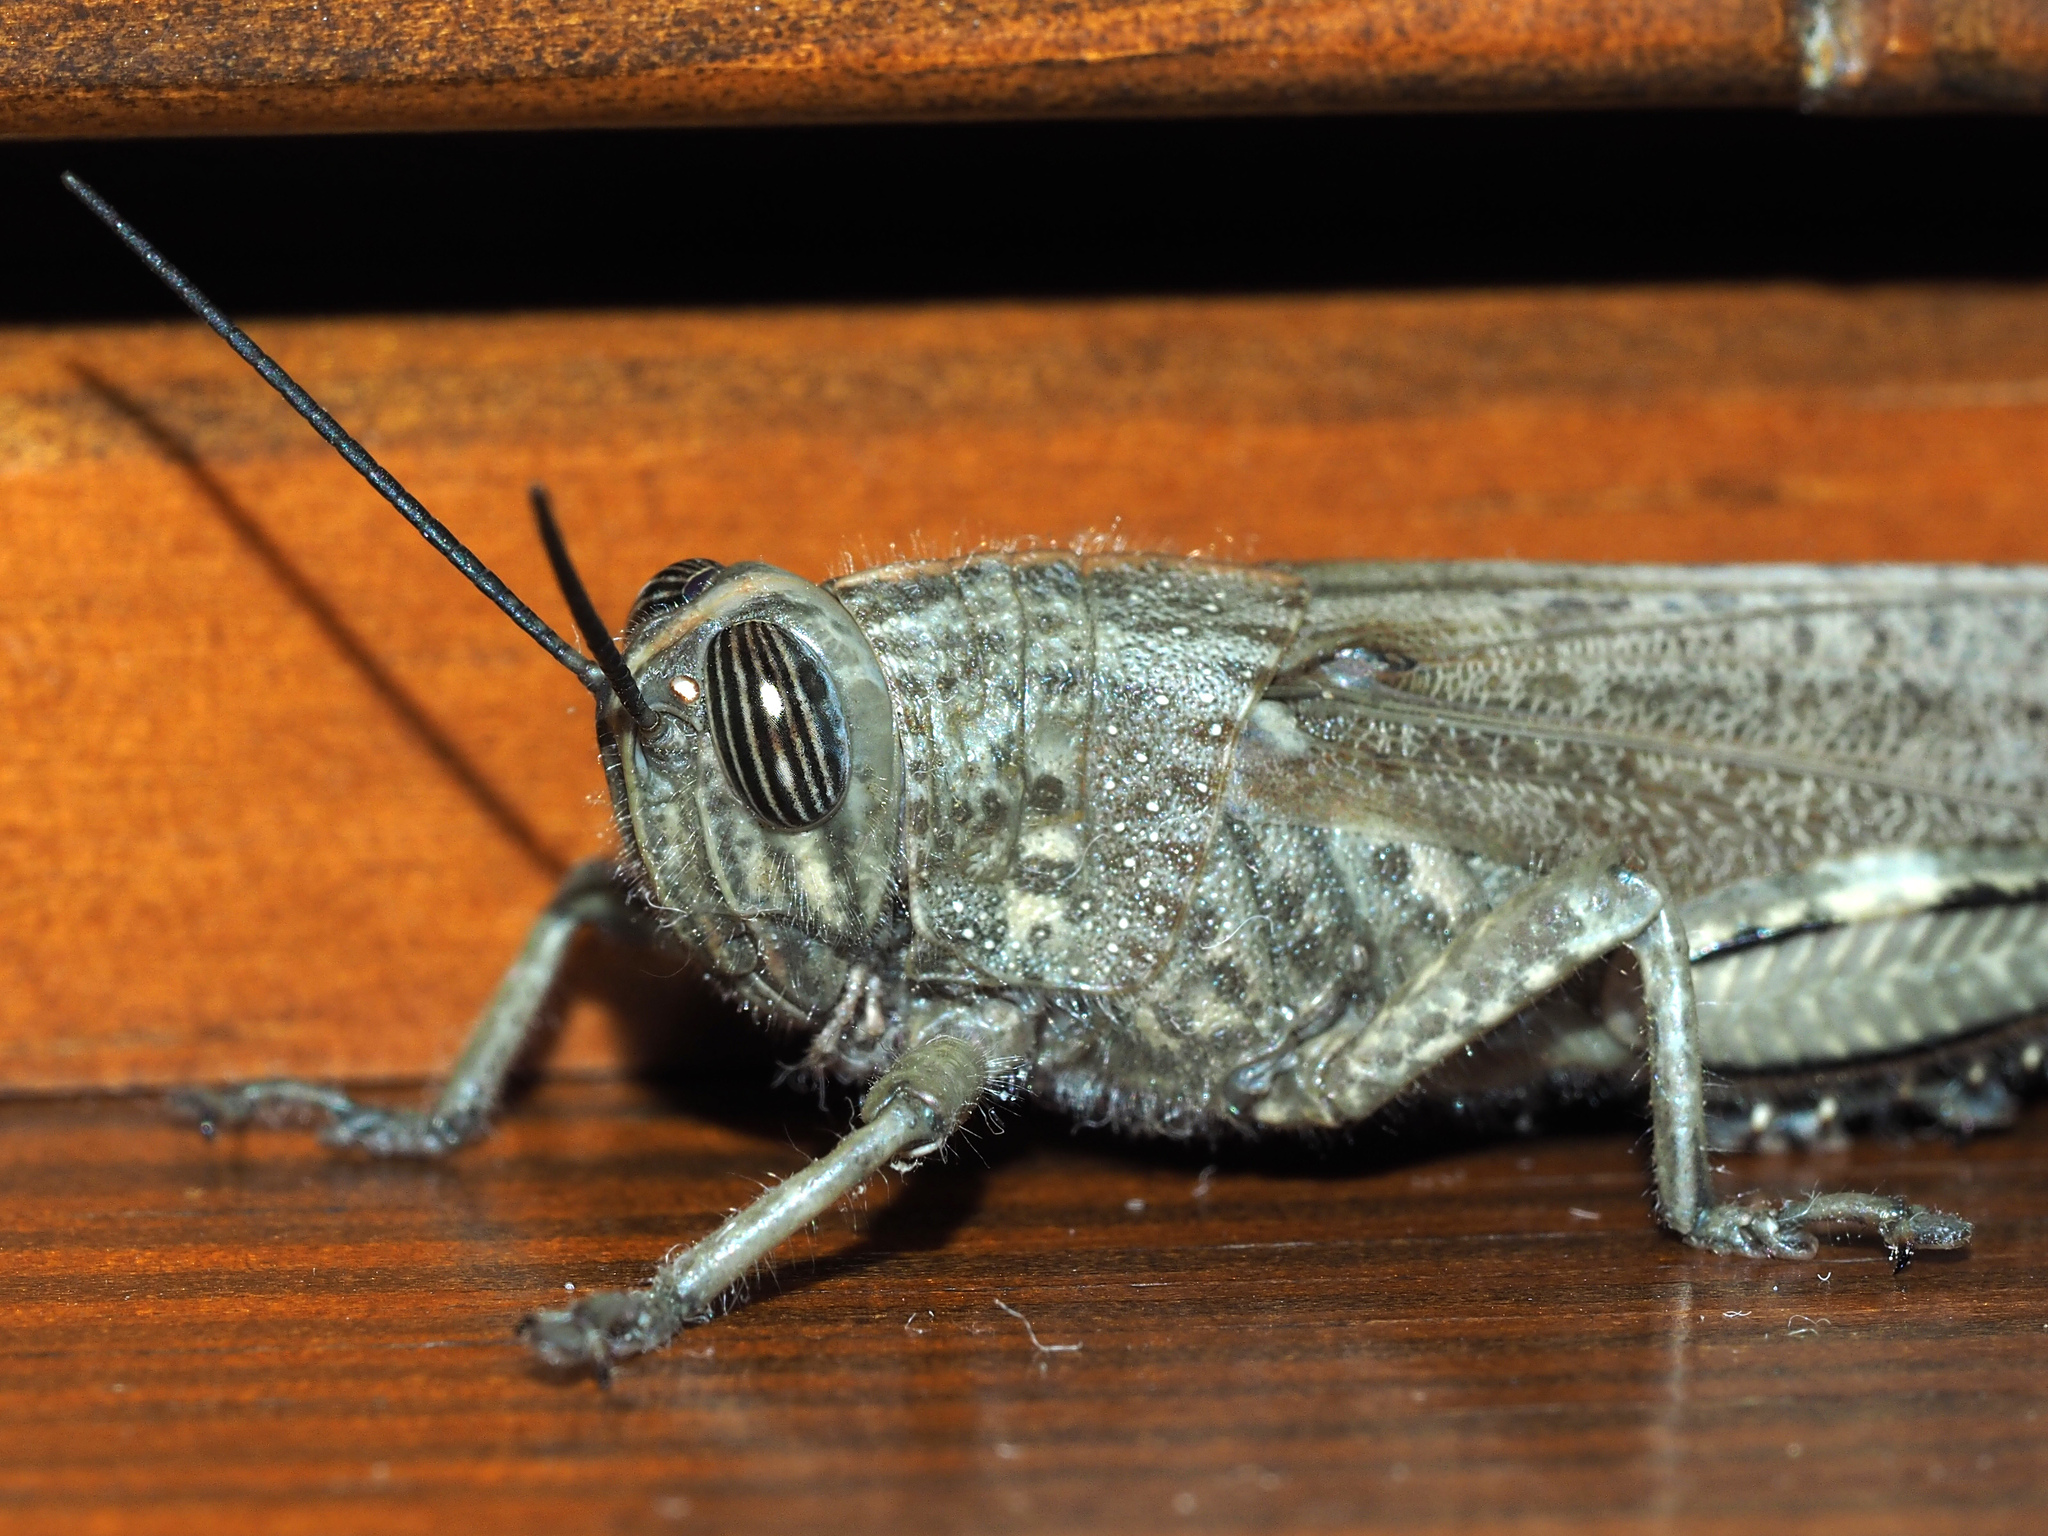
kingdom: Animalia
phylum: Arthropoda
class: Insecta
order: Orthoptera
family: Acrididae
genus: Anacridium
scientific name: Anacridium aegyptium
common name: Egyptian grasshopper
